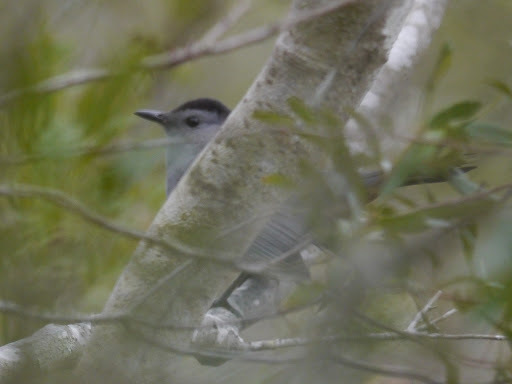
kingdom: Animalia
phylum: Chordata
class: Aves
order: Passeriformes
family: Mimidae
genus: Dumetella
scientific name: Dumetella carolinensis
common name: Gray catbird
